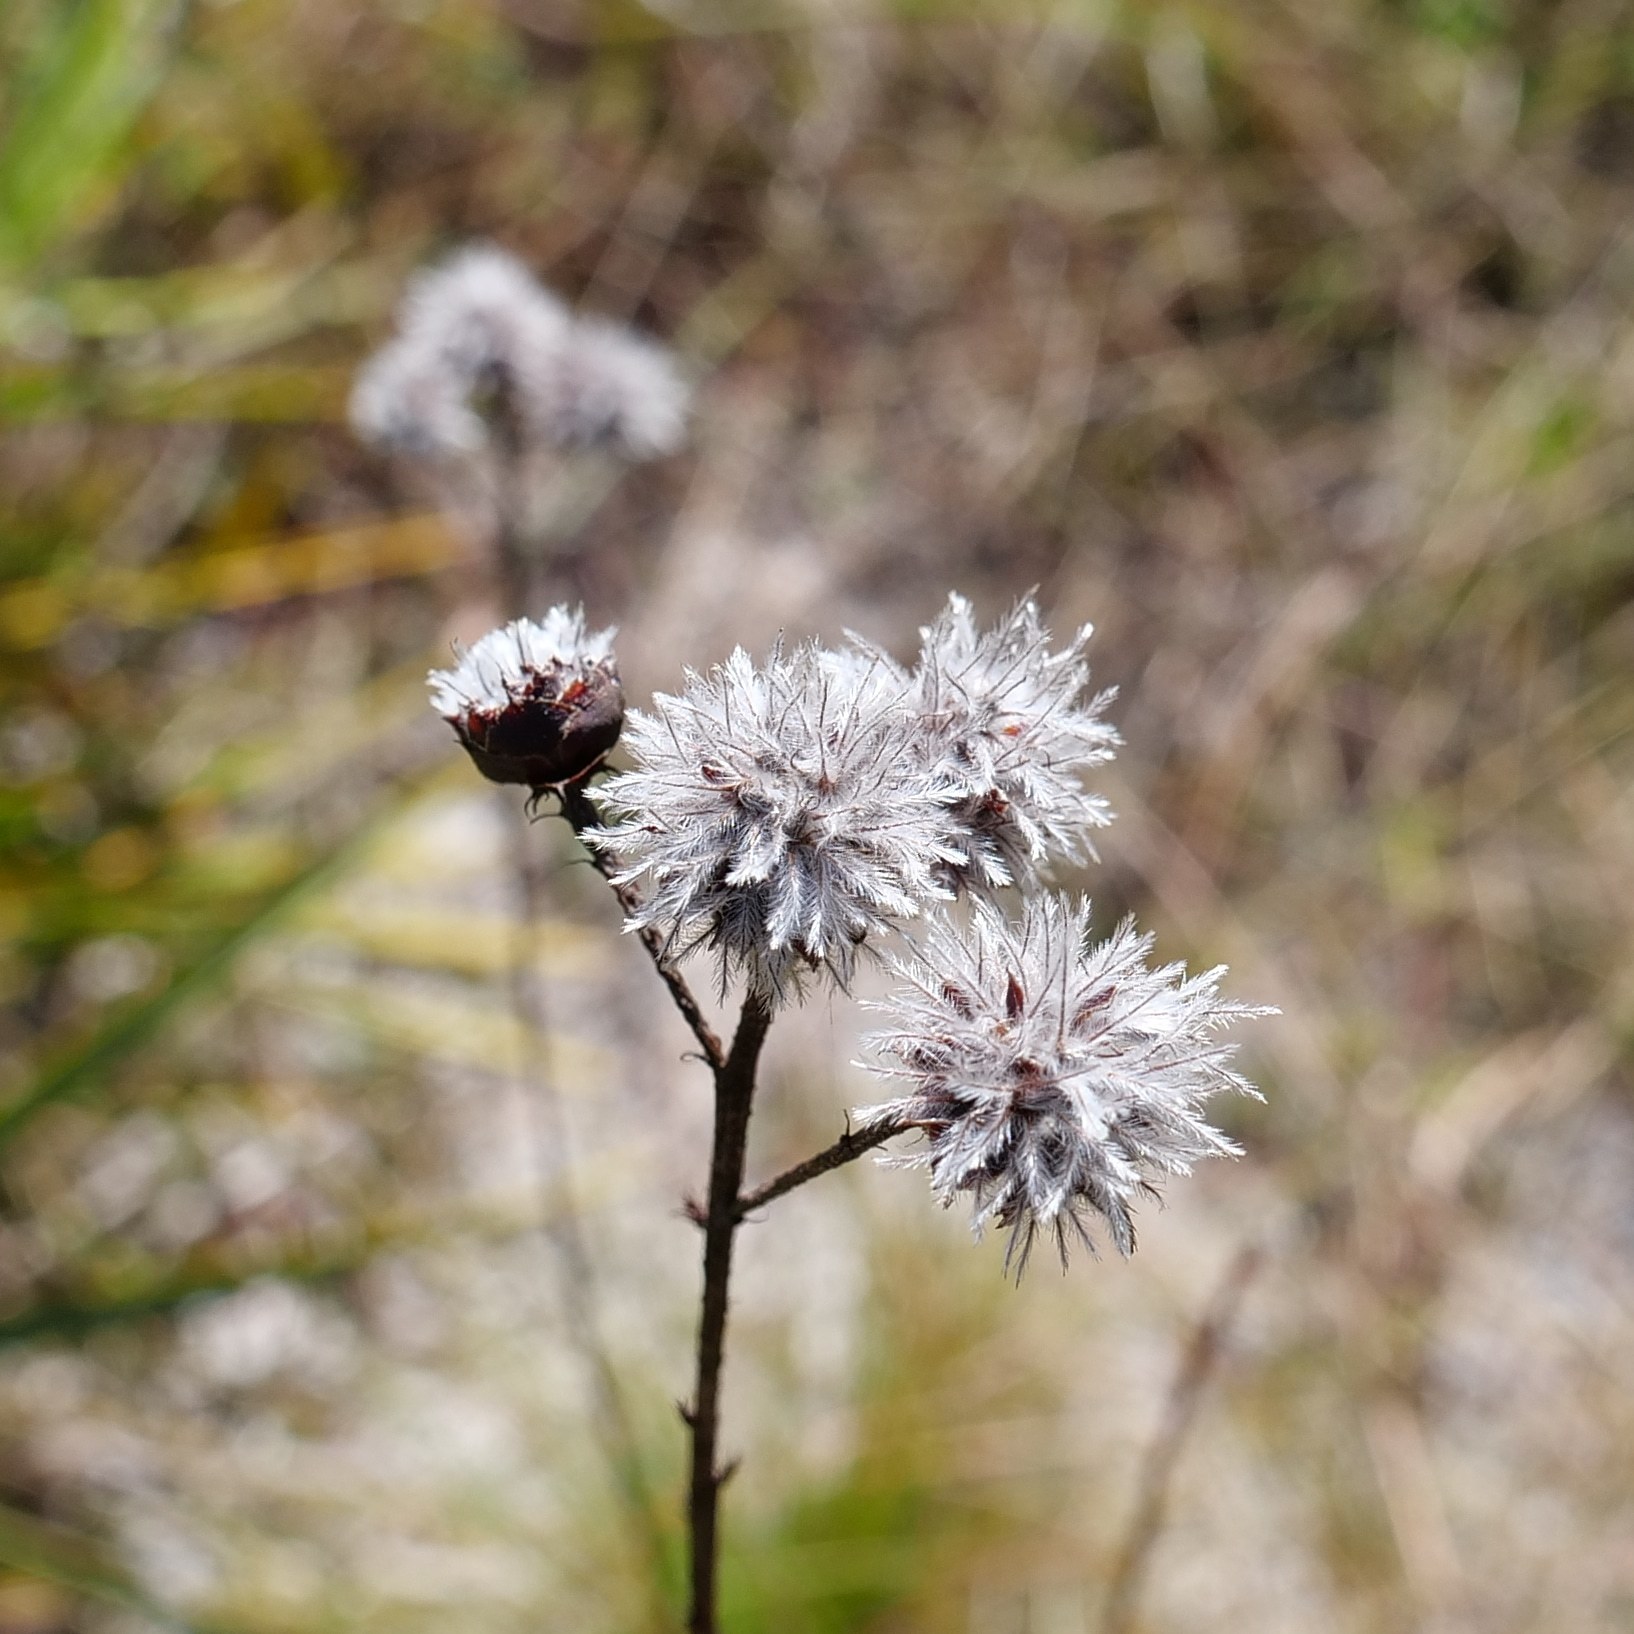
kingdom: Plantae
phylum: Tracheophyta
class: Magnoliopsida
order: Fabales
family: Fabaceae
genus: Dalea
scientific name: Dalea pinnata
